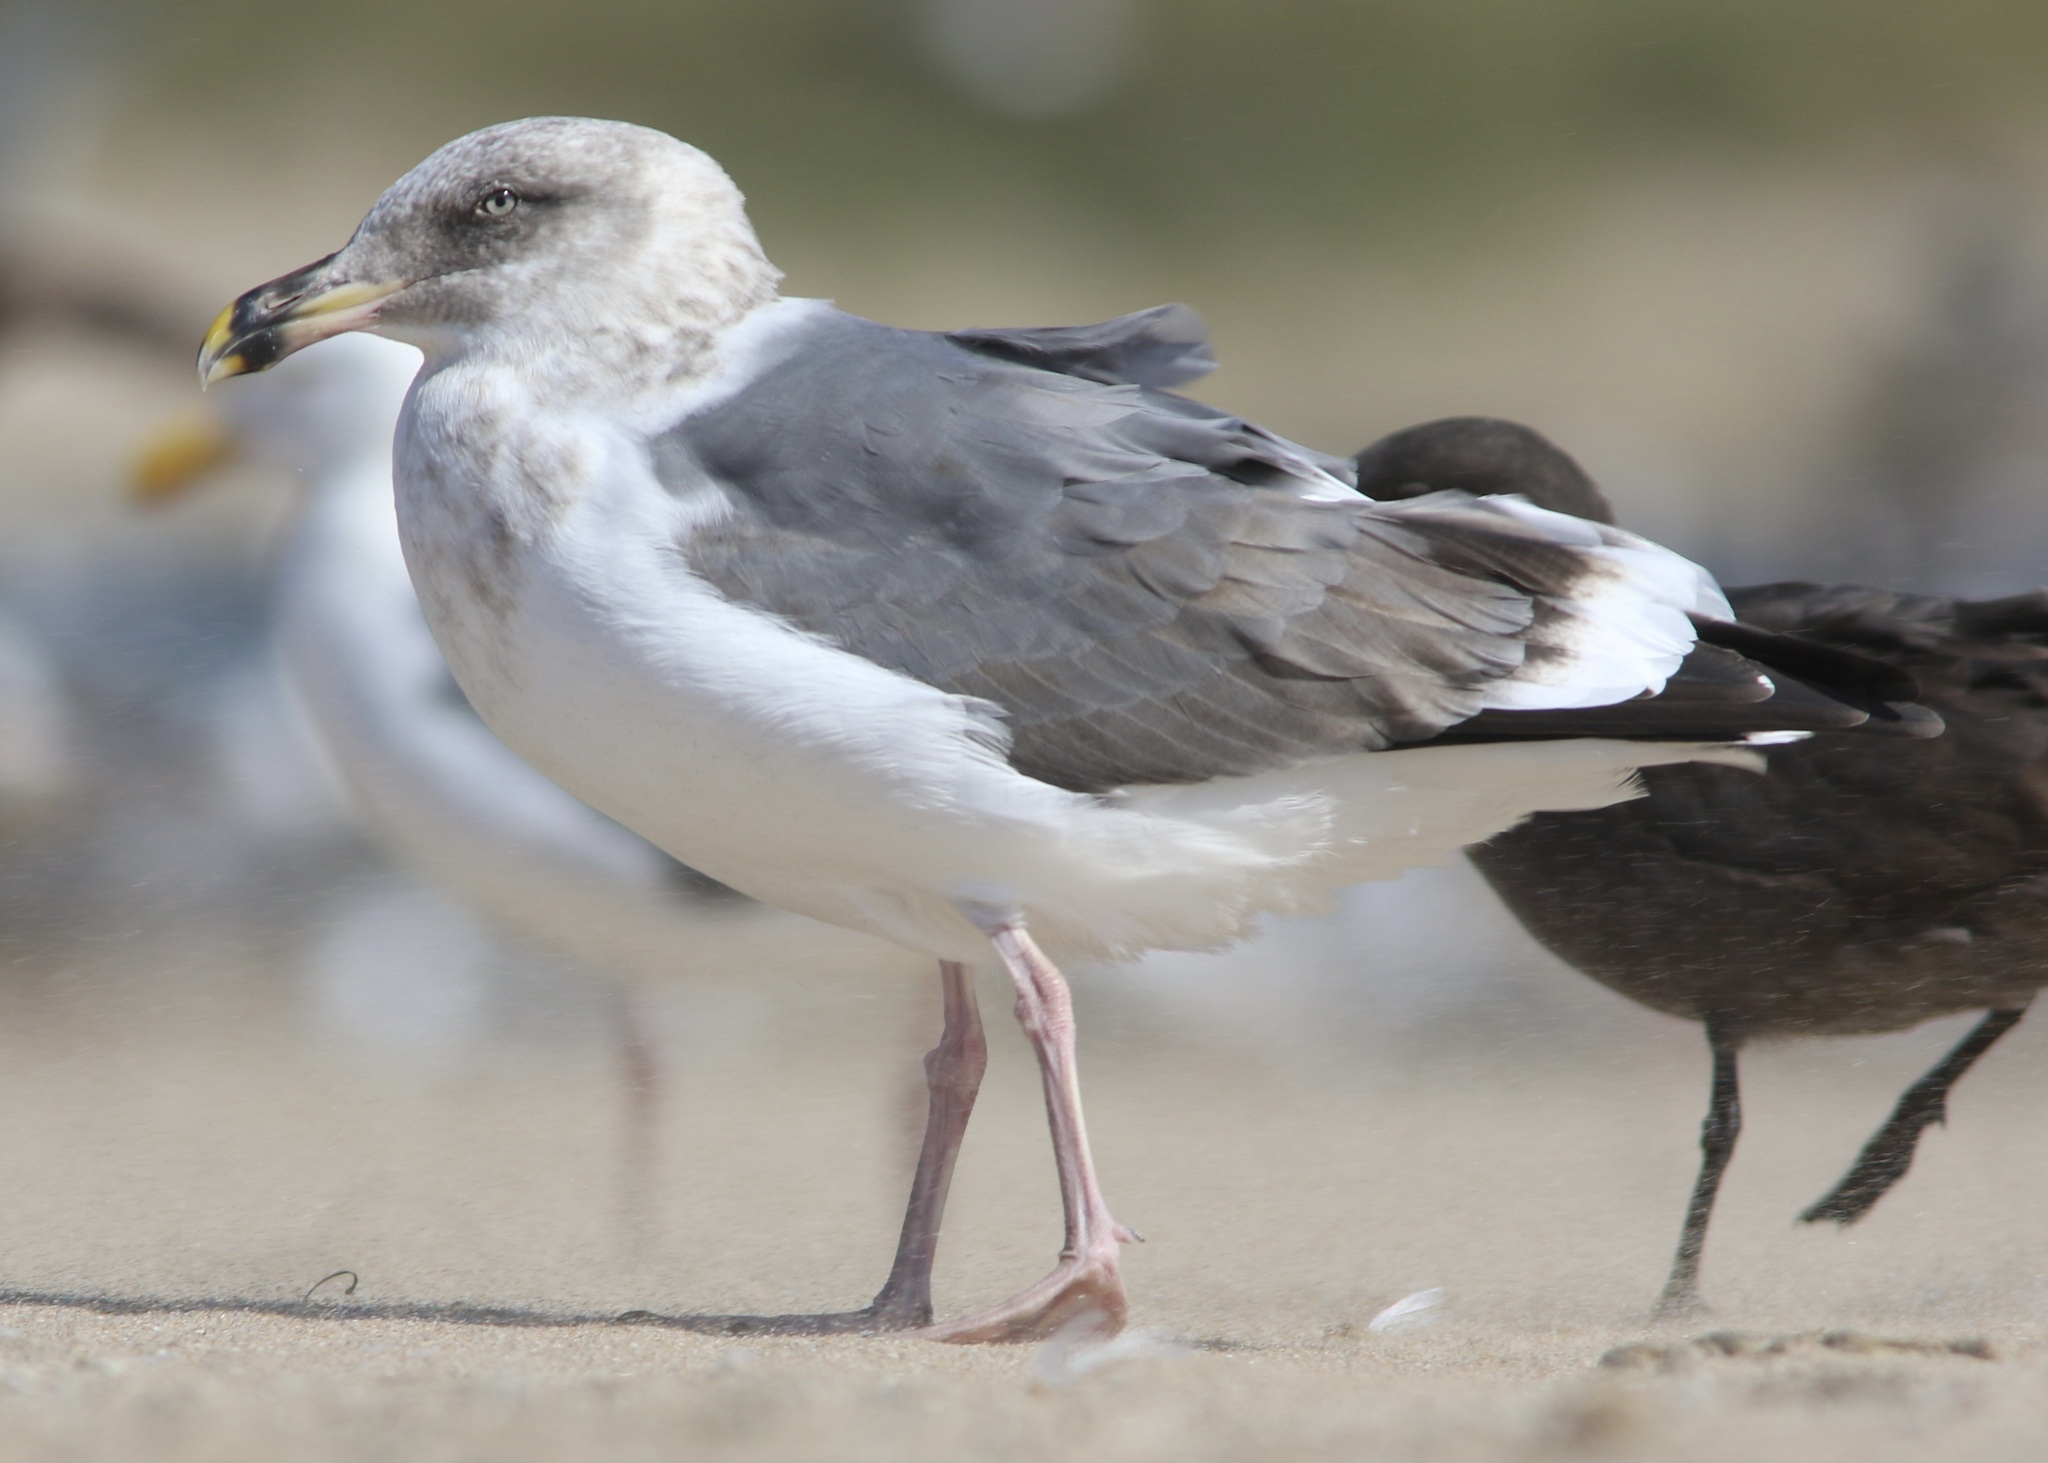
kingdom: Animalia
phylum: Chordata
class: Aves
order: Charadriiformes
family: Laridae
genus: Larus
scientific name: Larus occidentalis
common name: Western gull
